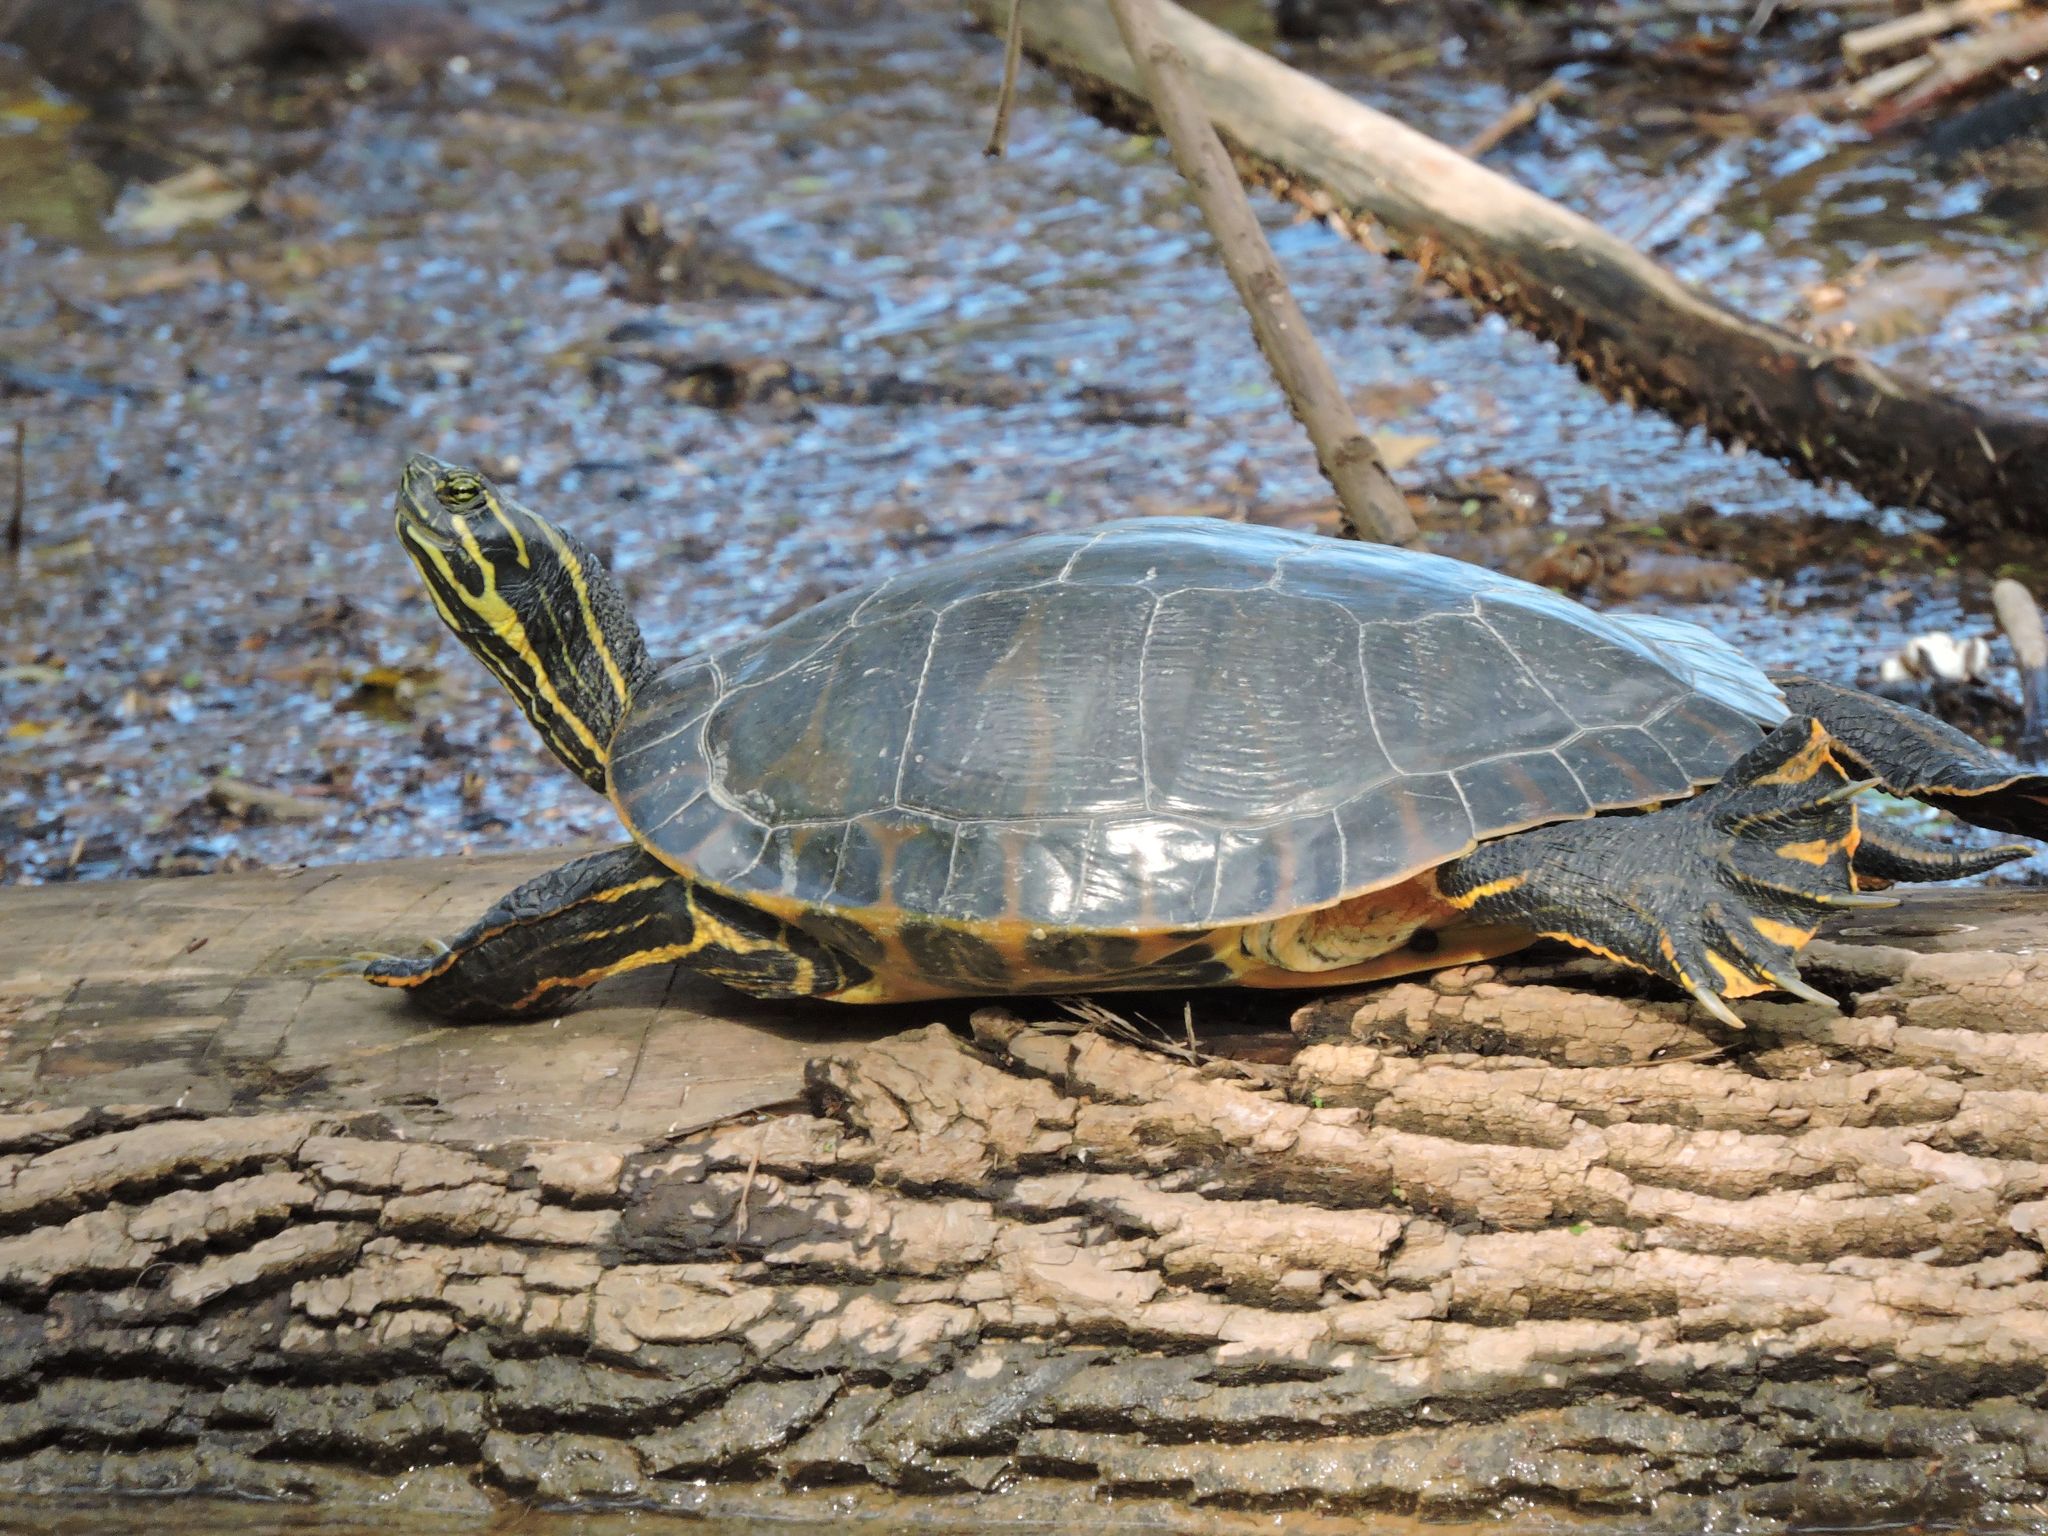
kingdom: Animalia
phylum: Chordata
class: Testudines
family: Emydidae
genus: Pseudemys
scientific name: Pseudemys concinna
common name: Eastern river cooter
